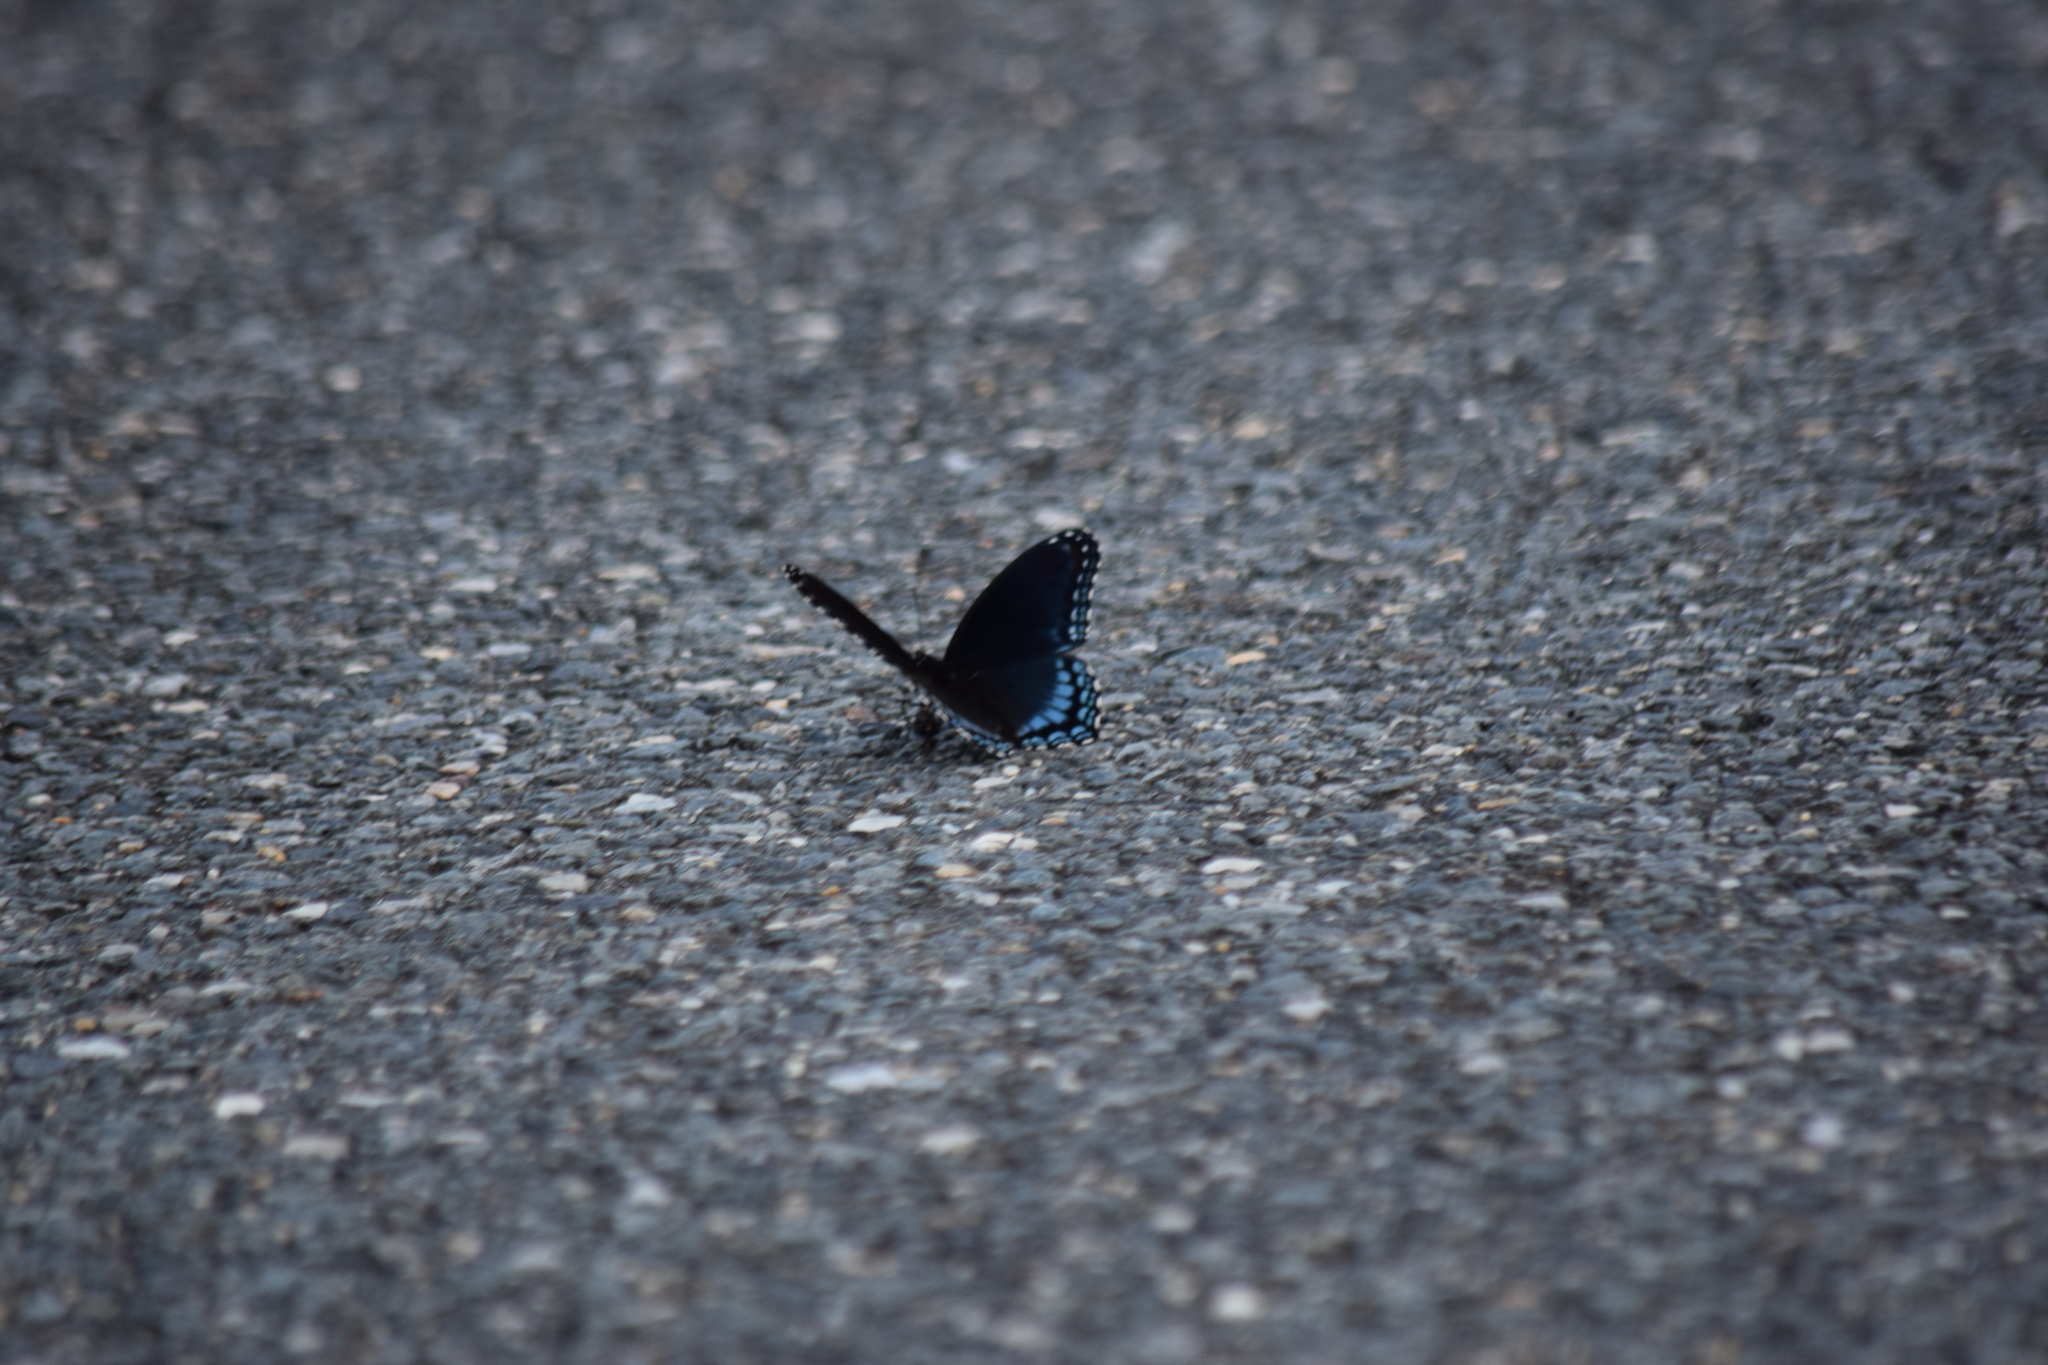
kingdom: Animalia
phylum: Arthropoda
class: Insecta
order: Lepidoptera
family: Nymphalidae
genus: Limenitis
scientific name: Limenitis astyanax
